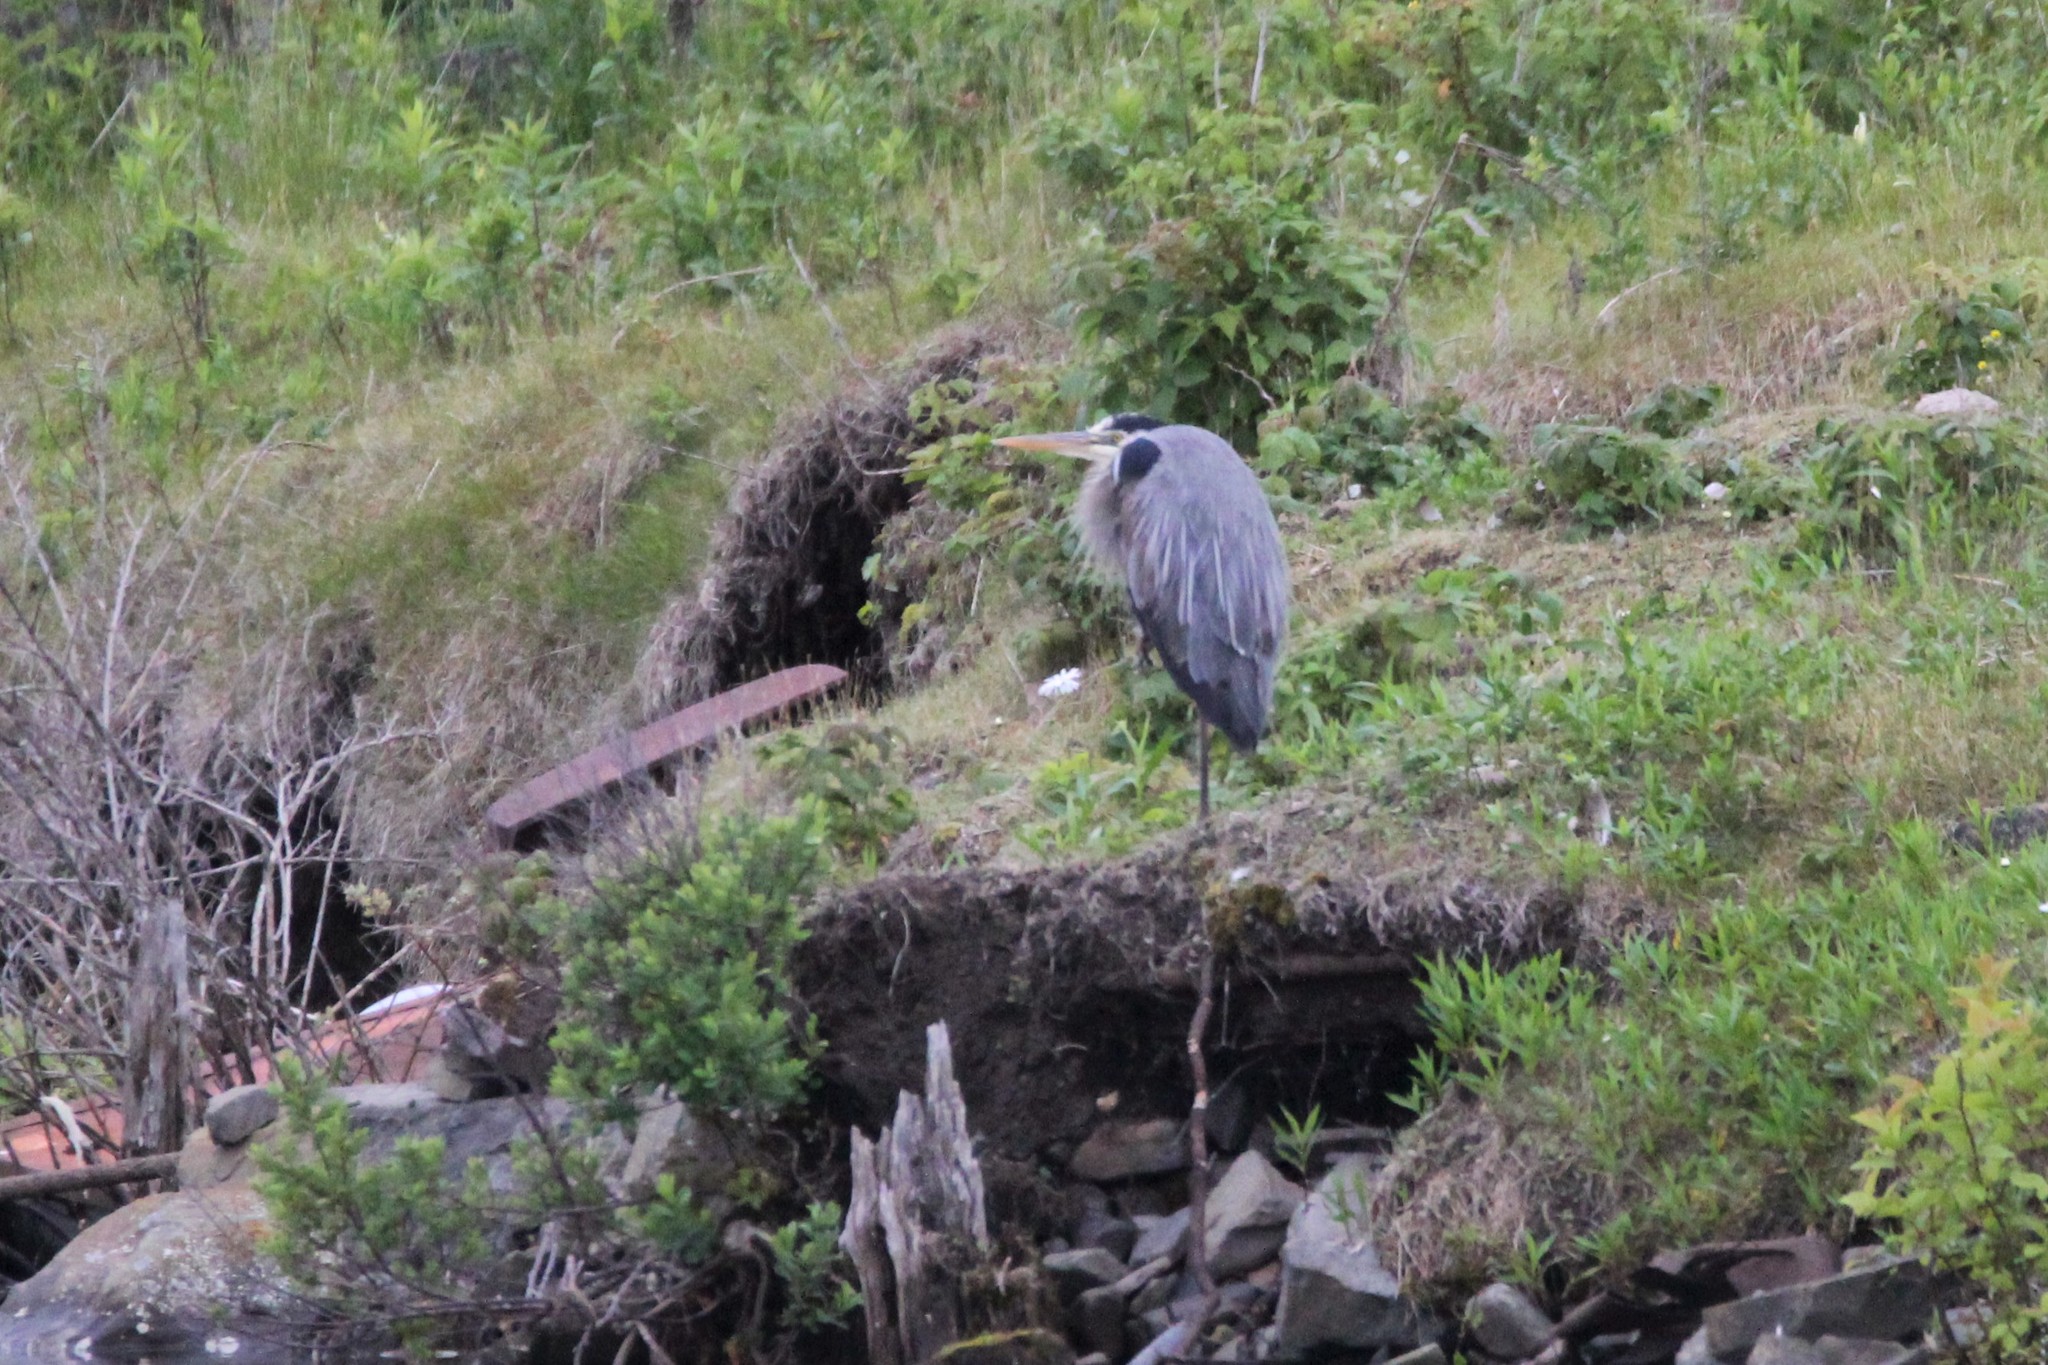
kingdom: Animalia
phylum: Chordata
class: Aves
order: Pelecaniformes
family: Ardeidae
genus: Ardea
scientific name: Ardea herodias
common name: Great blue heron
